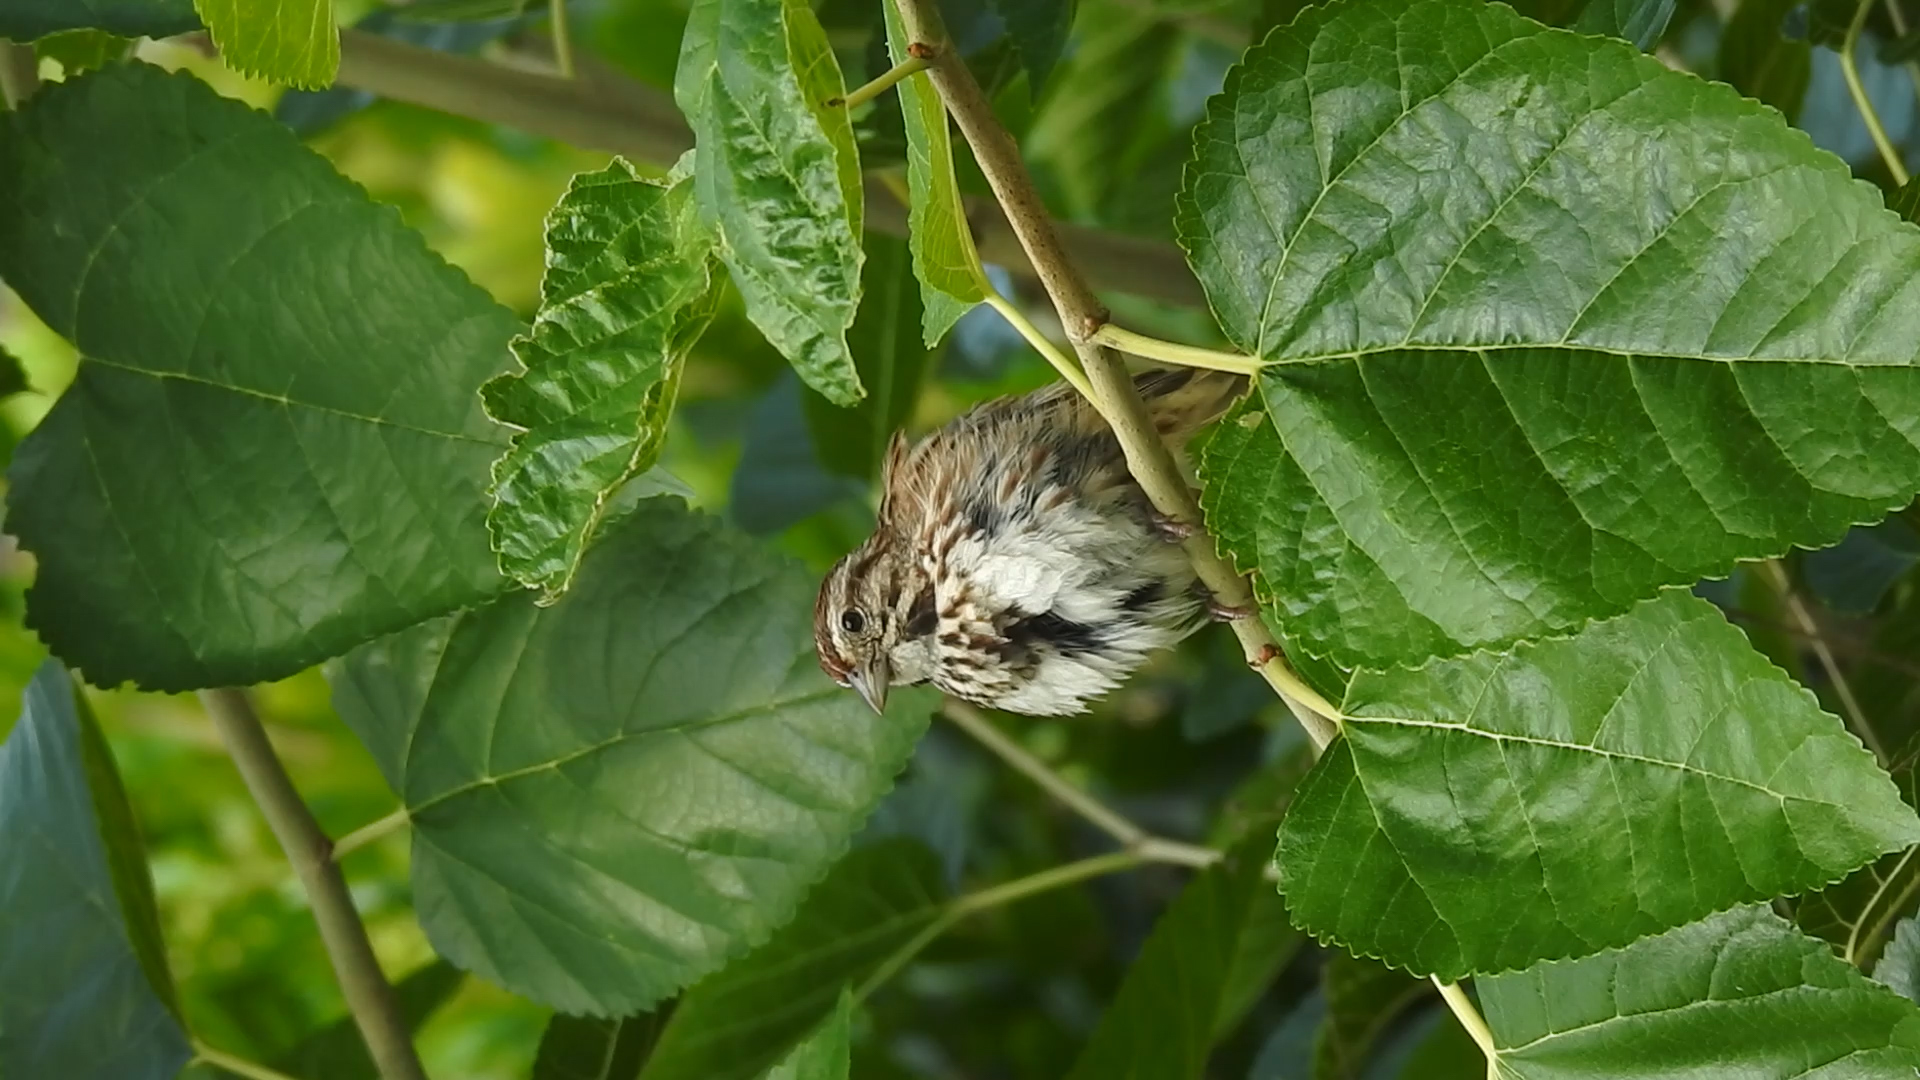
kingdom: Animalia
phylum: Chordata
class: Aves
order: Passeriformes
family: Passerellidae
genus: Melospiza
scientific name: Melospiza melodia
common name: Song sparrow
